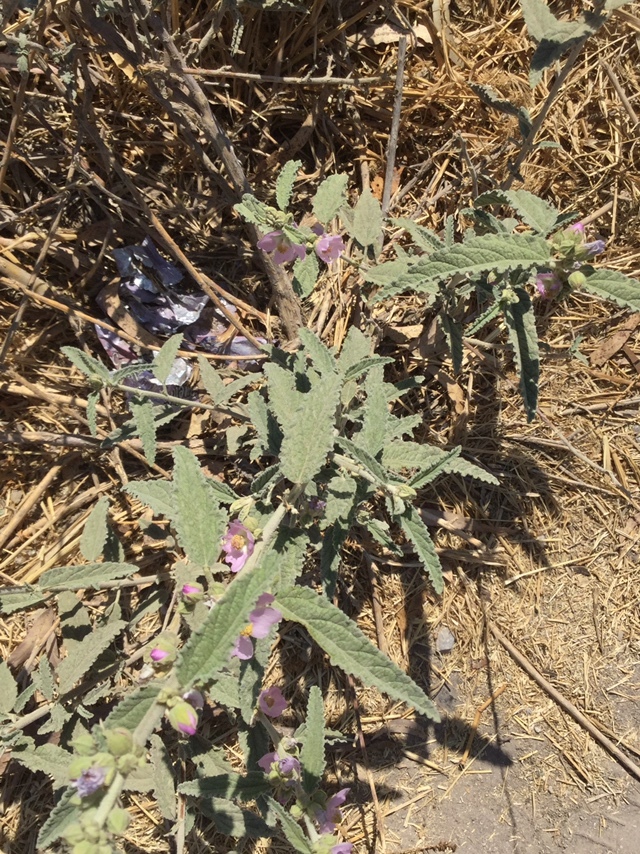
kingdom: Plantae
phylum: Tracheophyta
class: Magnoliopsida
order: Malvales
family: Malvaceae
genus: Sphaeralcea
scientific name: Sphaeralcea angustifolia
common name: Copper globe-mallow
